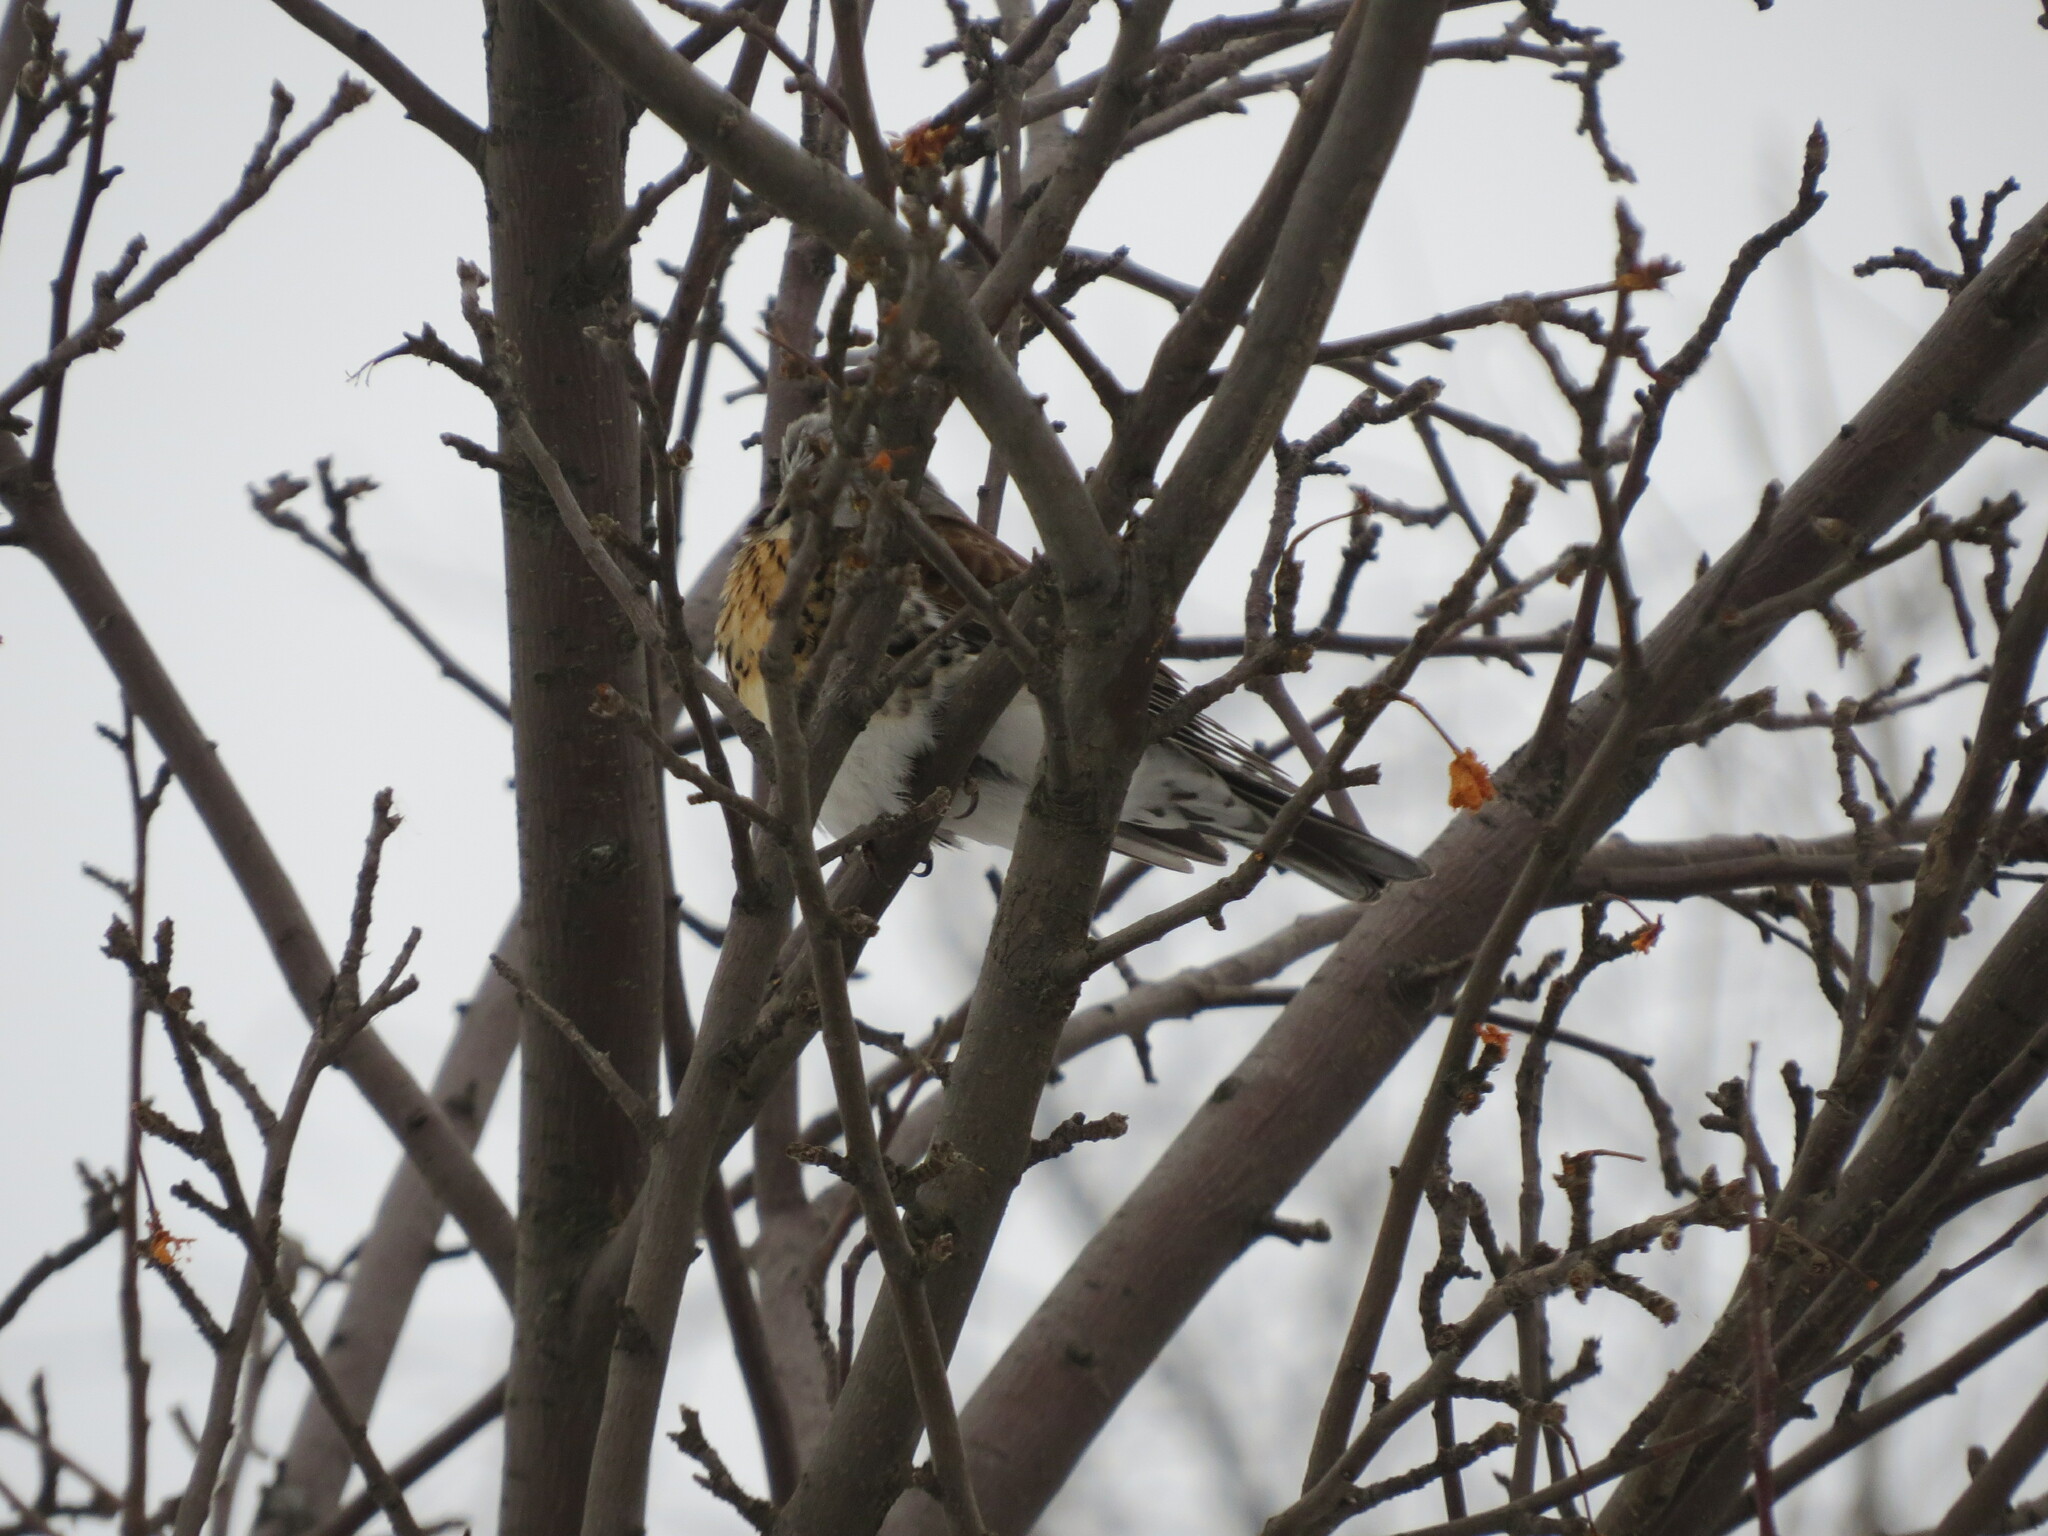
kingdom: Animalia
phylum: Chordata
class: Aves
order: Passeriformes
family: Turdidae
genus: Turdus
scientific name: Turdus pilaris
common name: Fieldfare
